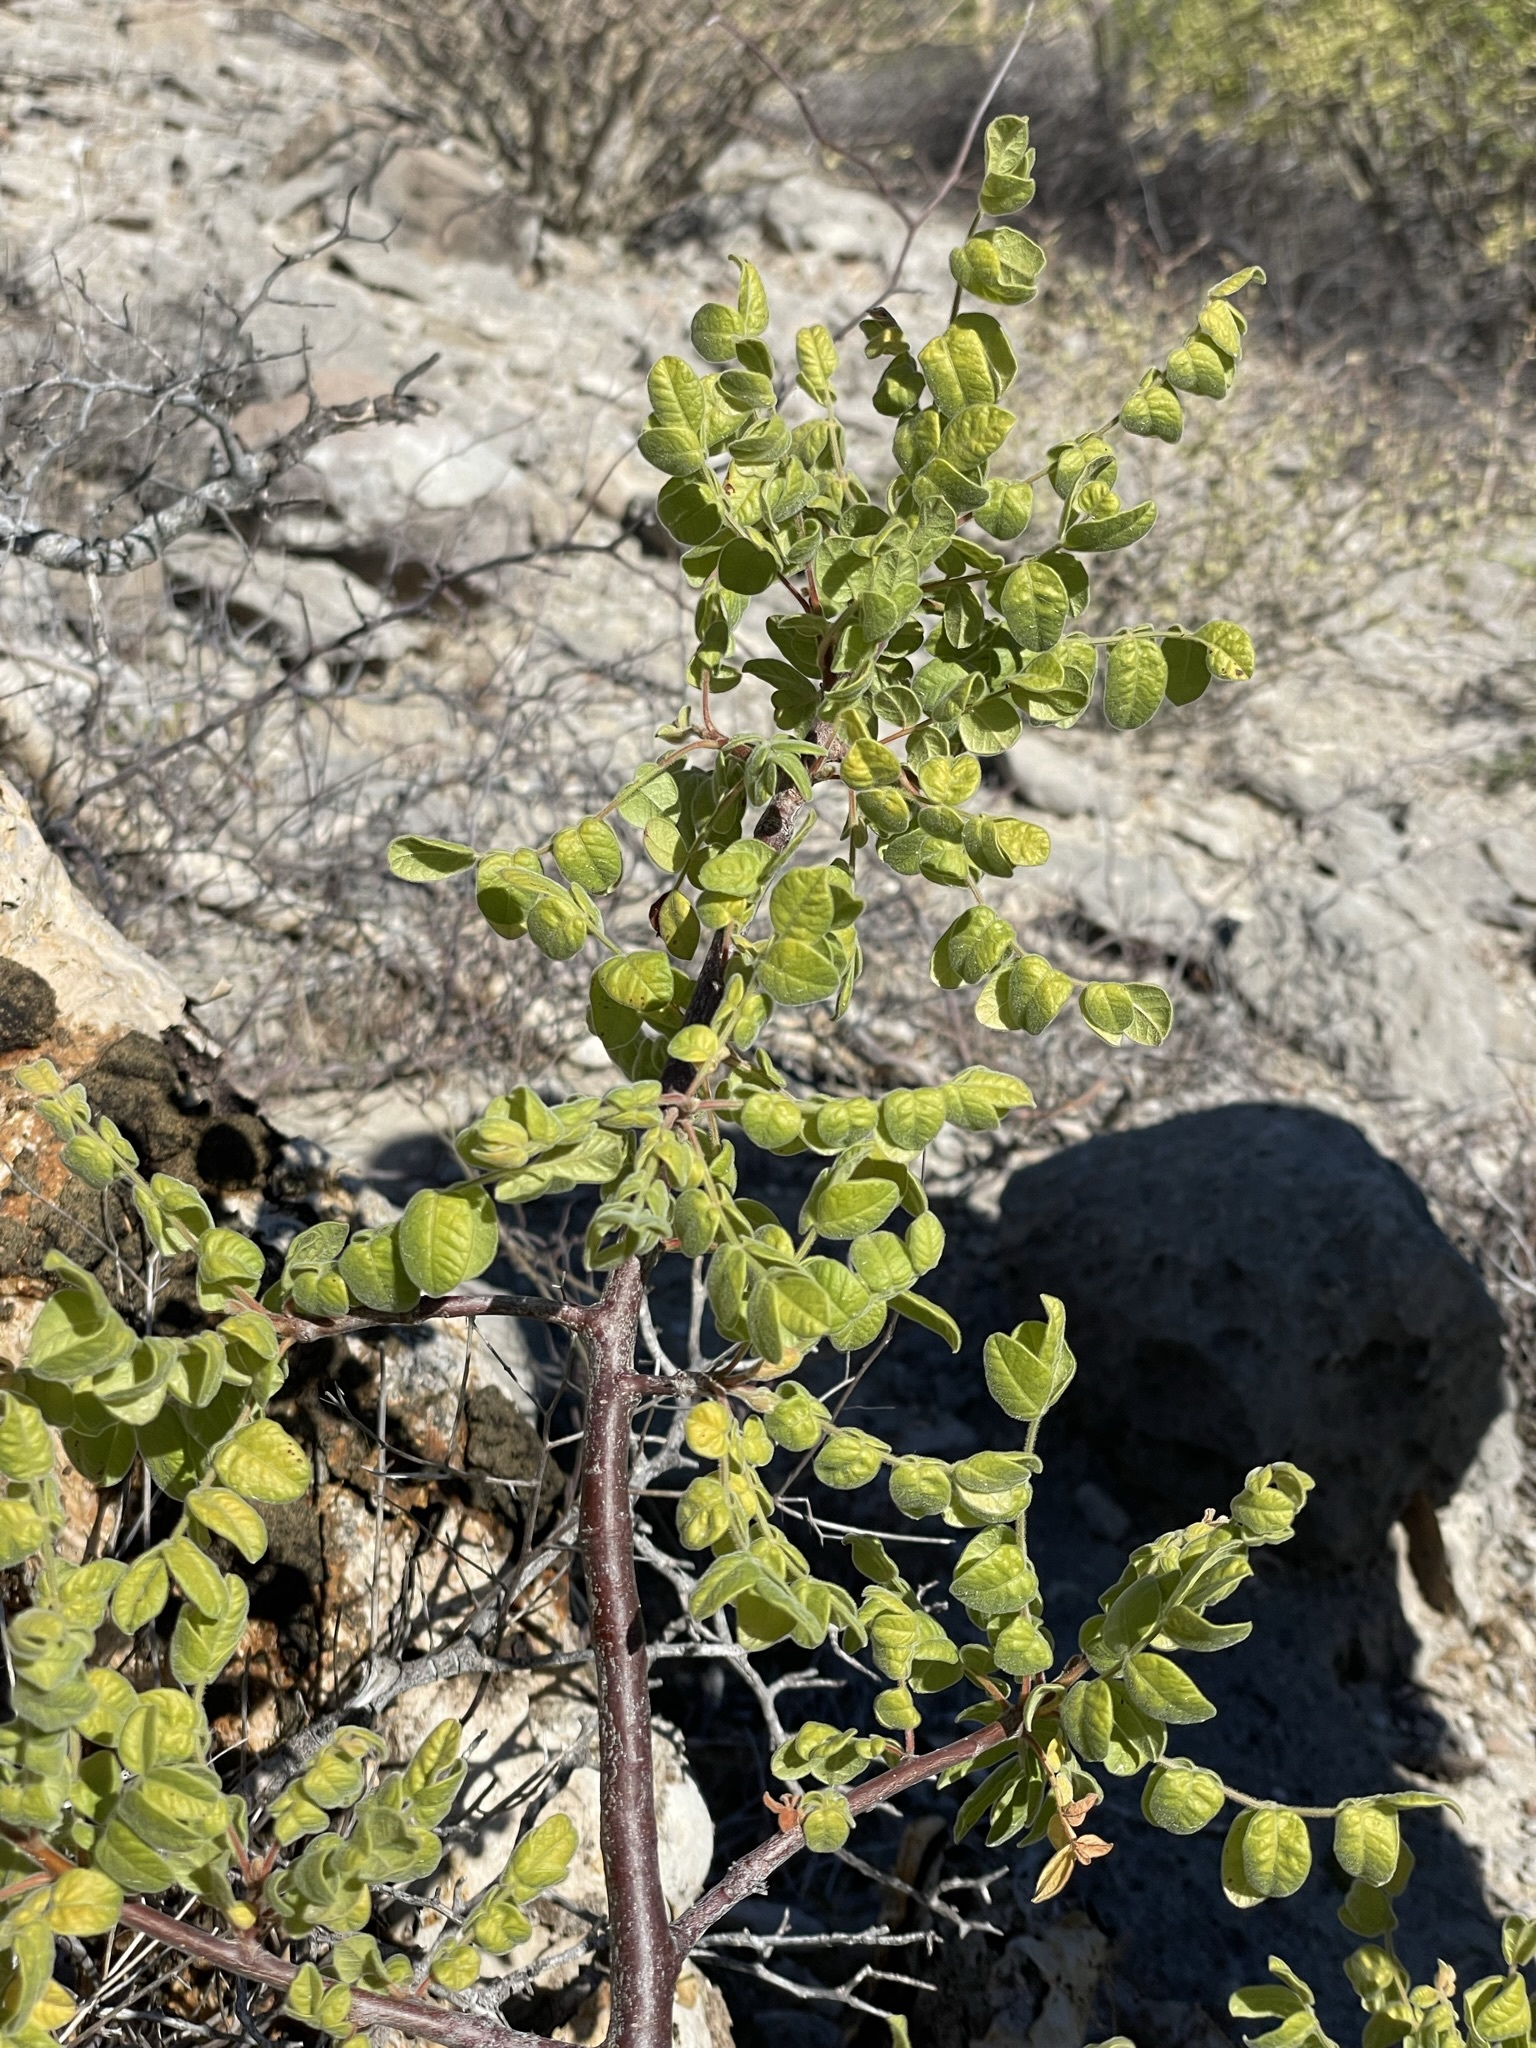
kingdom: Plantae
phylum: Tracheophyta
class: Magnoliopsida
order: Sapindales
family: Anacardiaceae
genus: Cyrtocarpa
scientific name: Cyrtocarpa edulis
